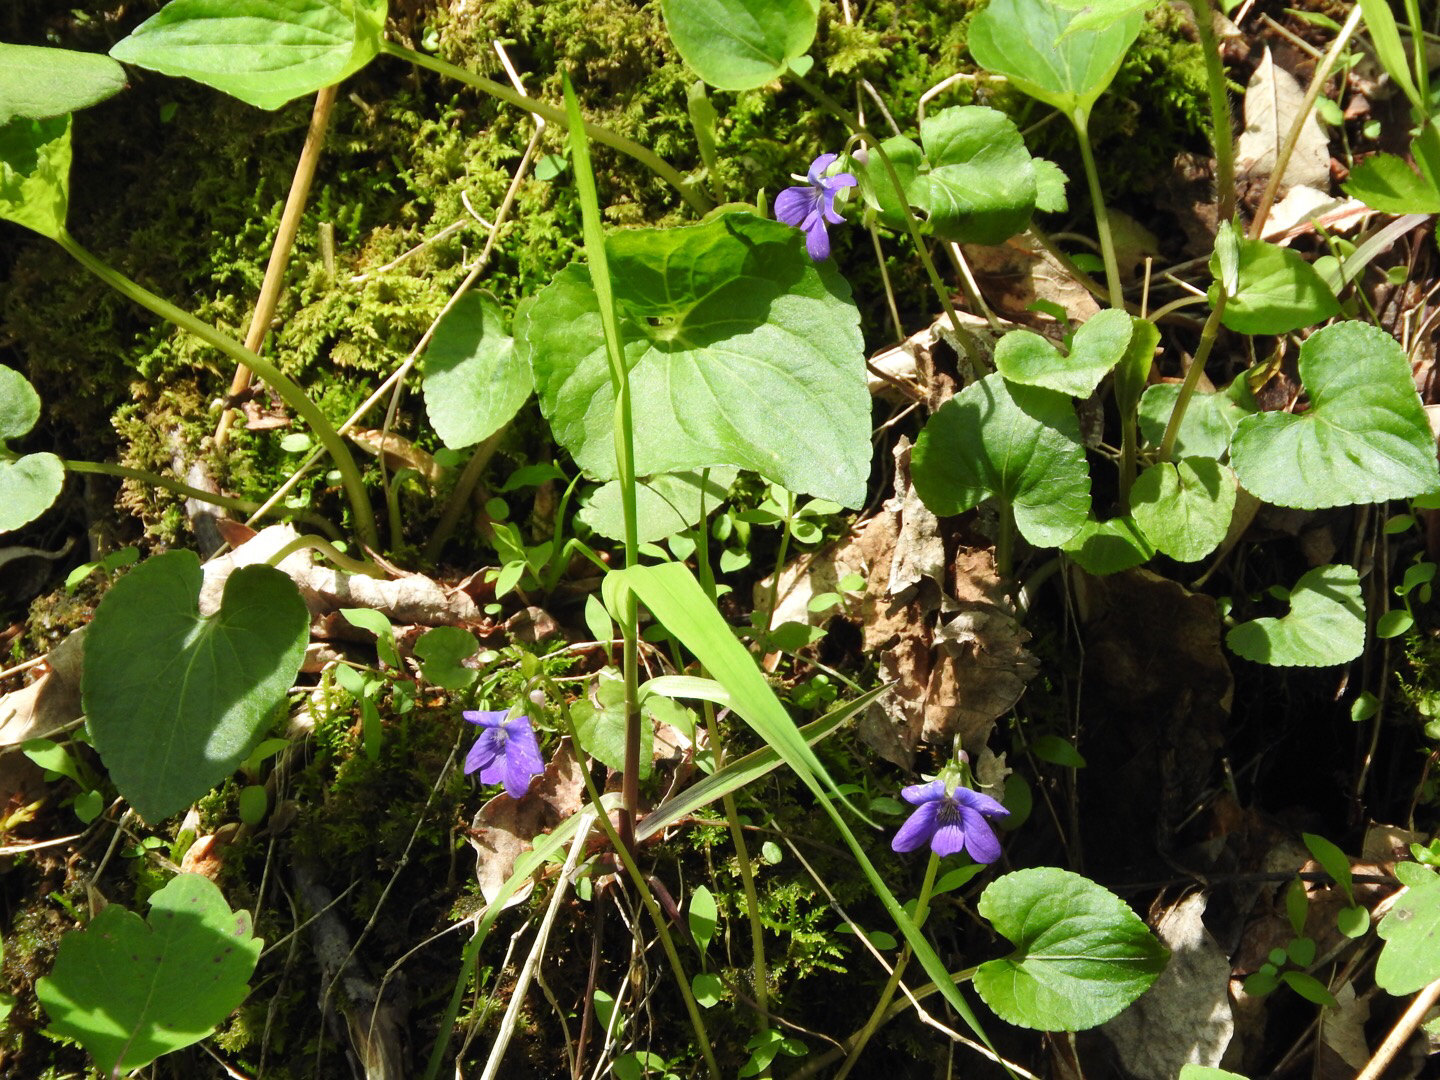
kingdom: Plantae
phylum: Tracheophyta
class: Magnoliopsida
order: Malpighiales
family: Violaceae
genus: Viola
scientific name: Viola cucullata
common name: Marsh blue violet
